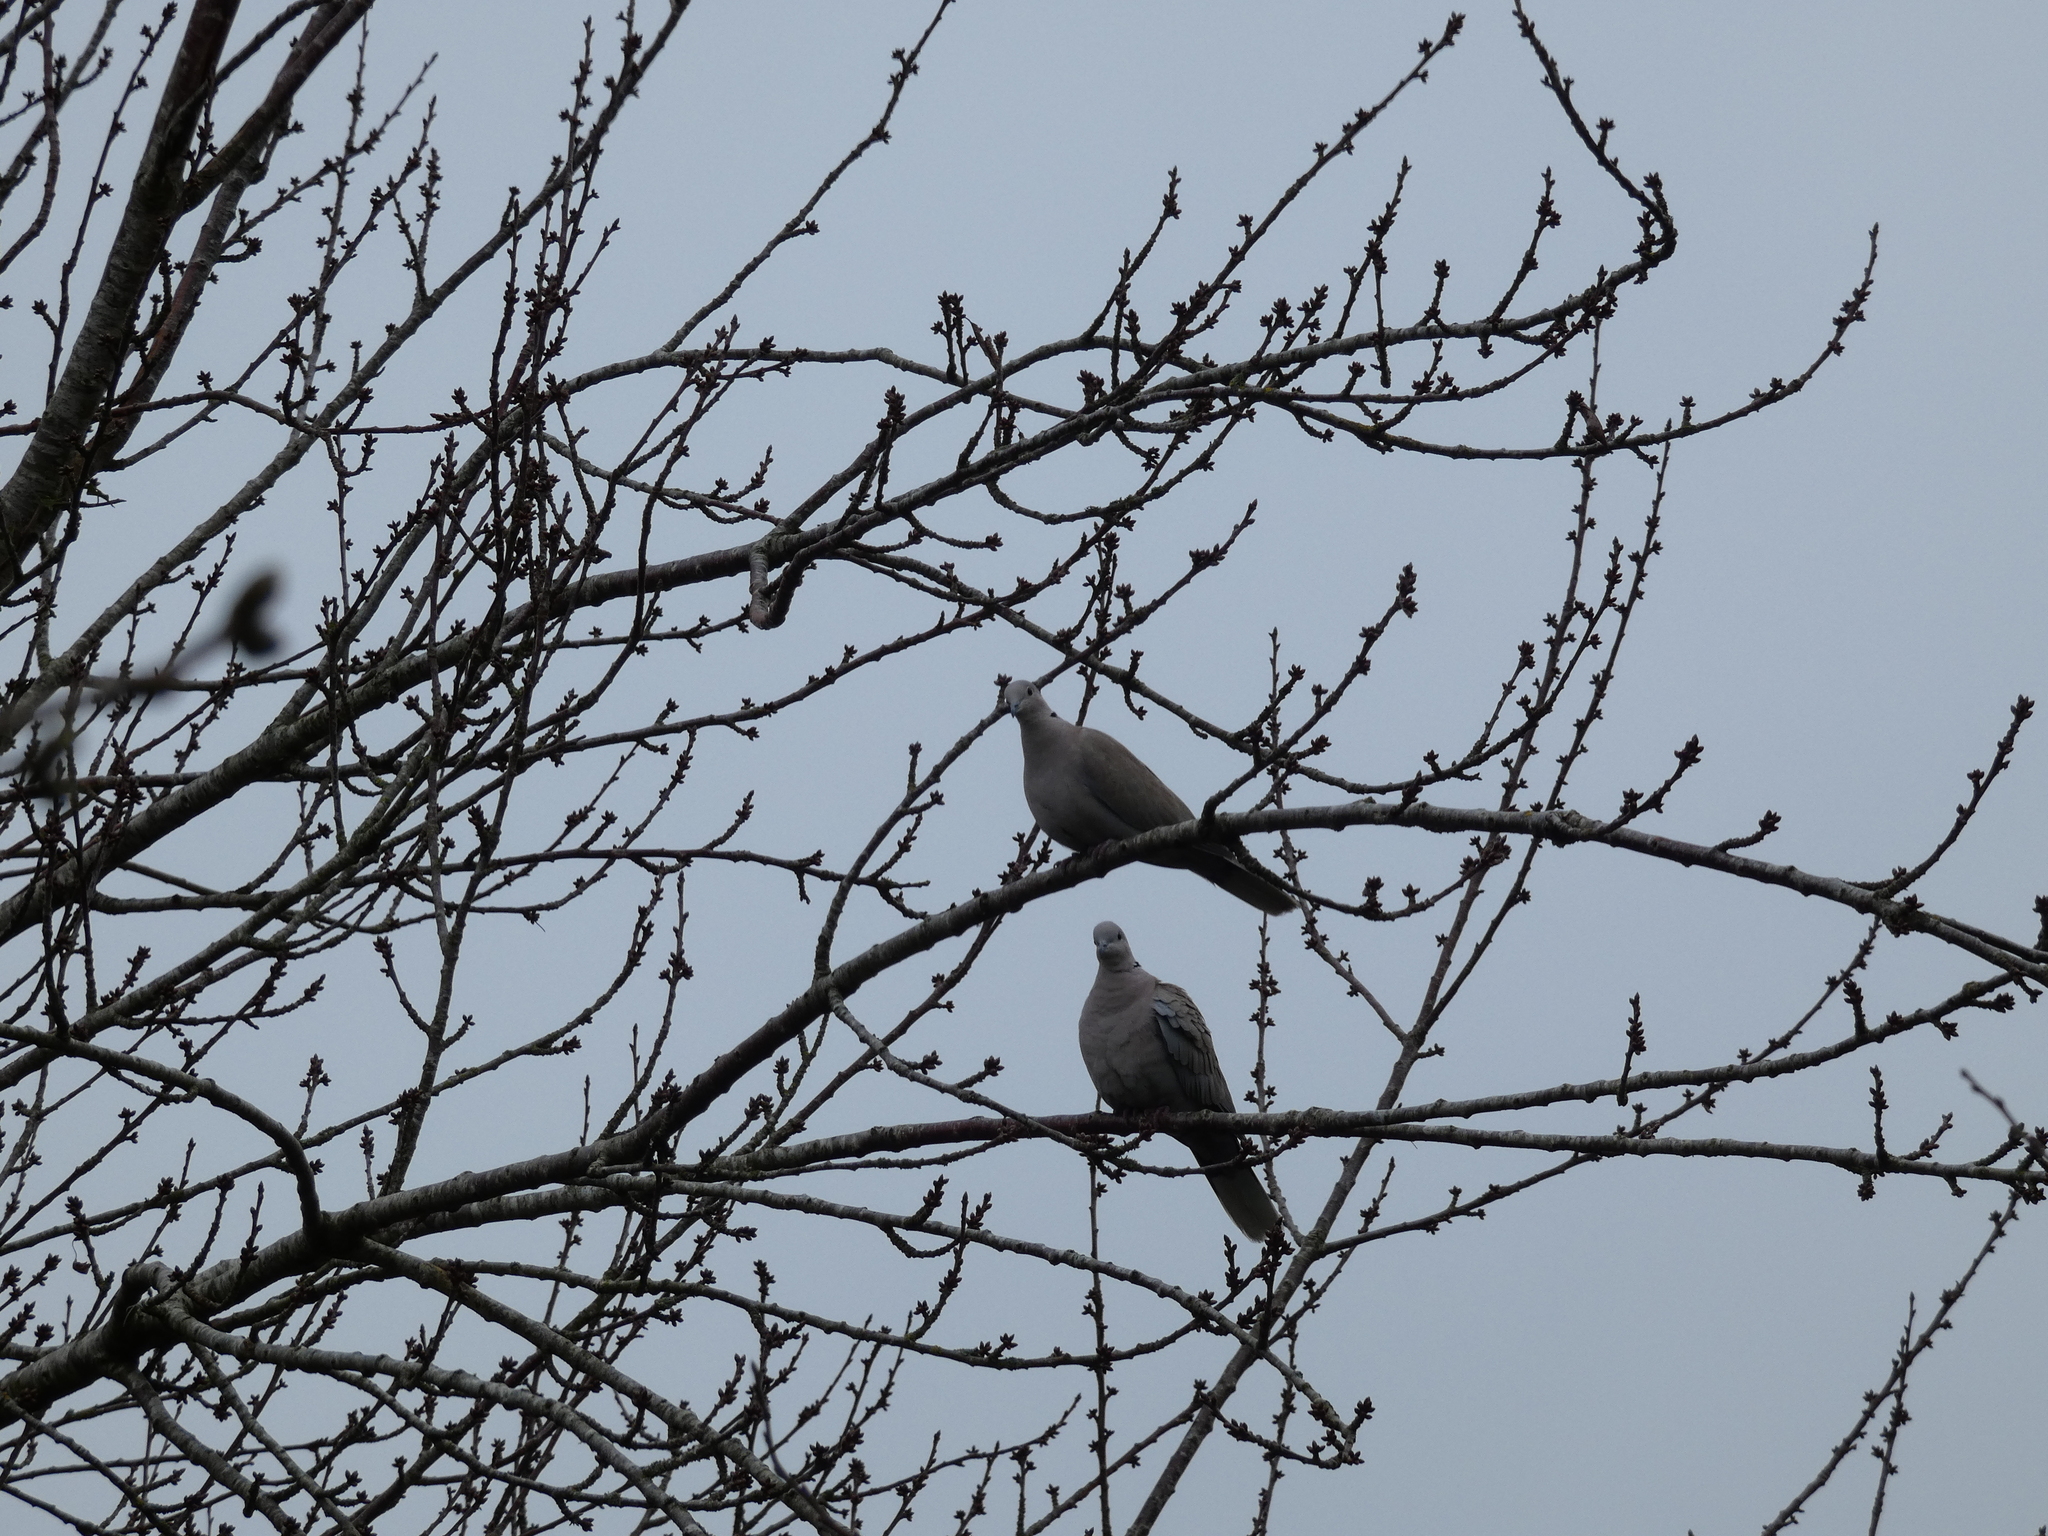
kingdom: Animalia
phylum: Chordata
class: Aves
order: Columbiformes
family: Columbidae
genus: Streptopelia
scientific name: Streptopelia decaocto
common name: Eurasian collared dove
